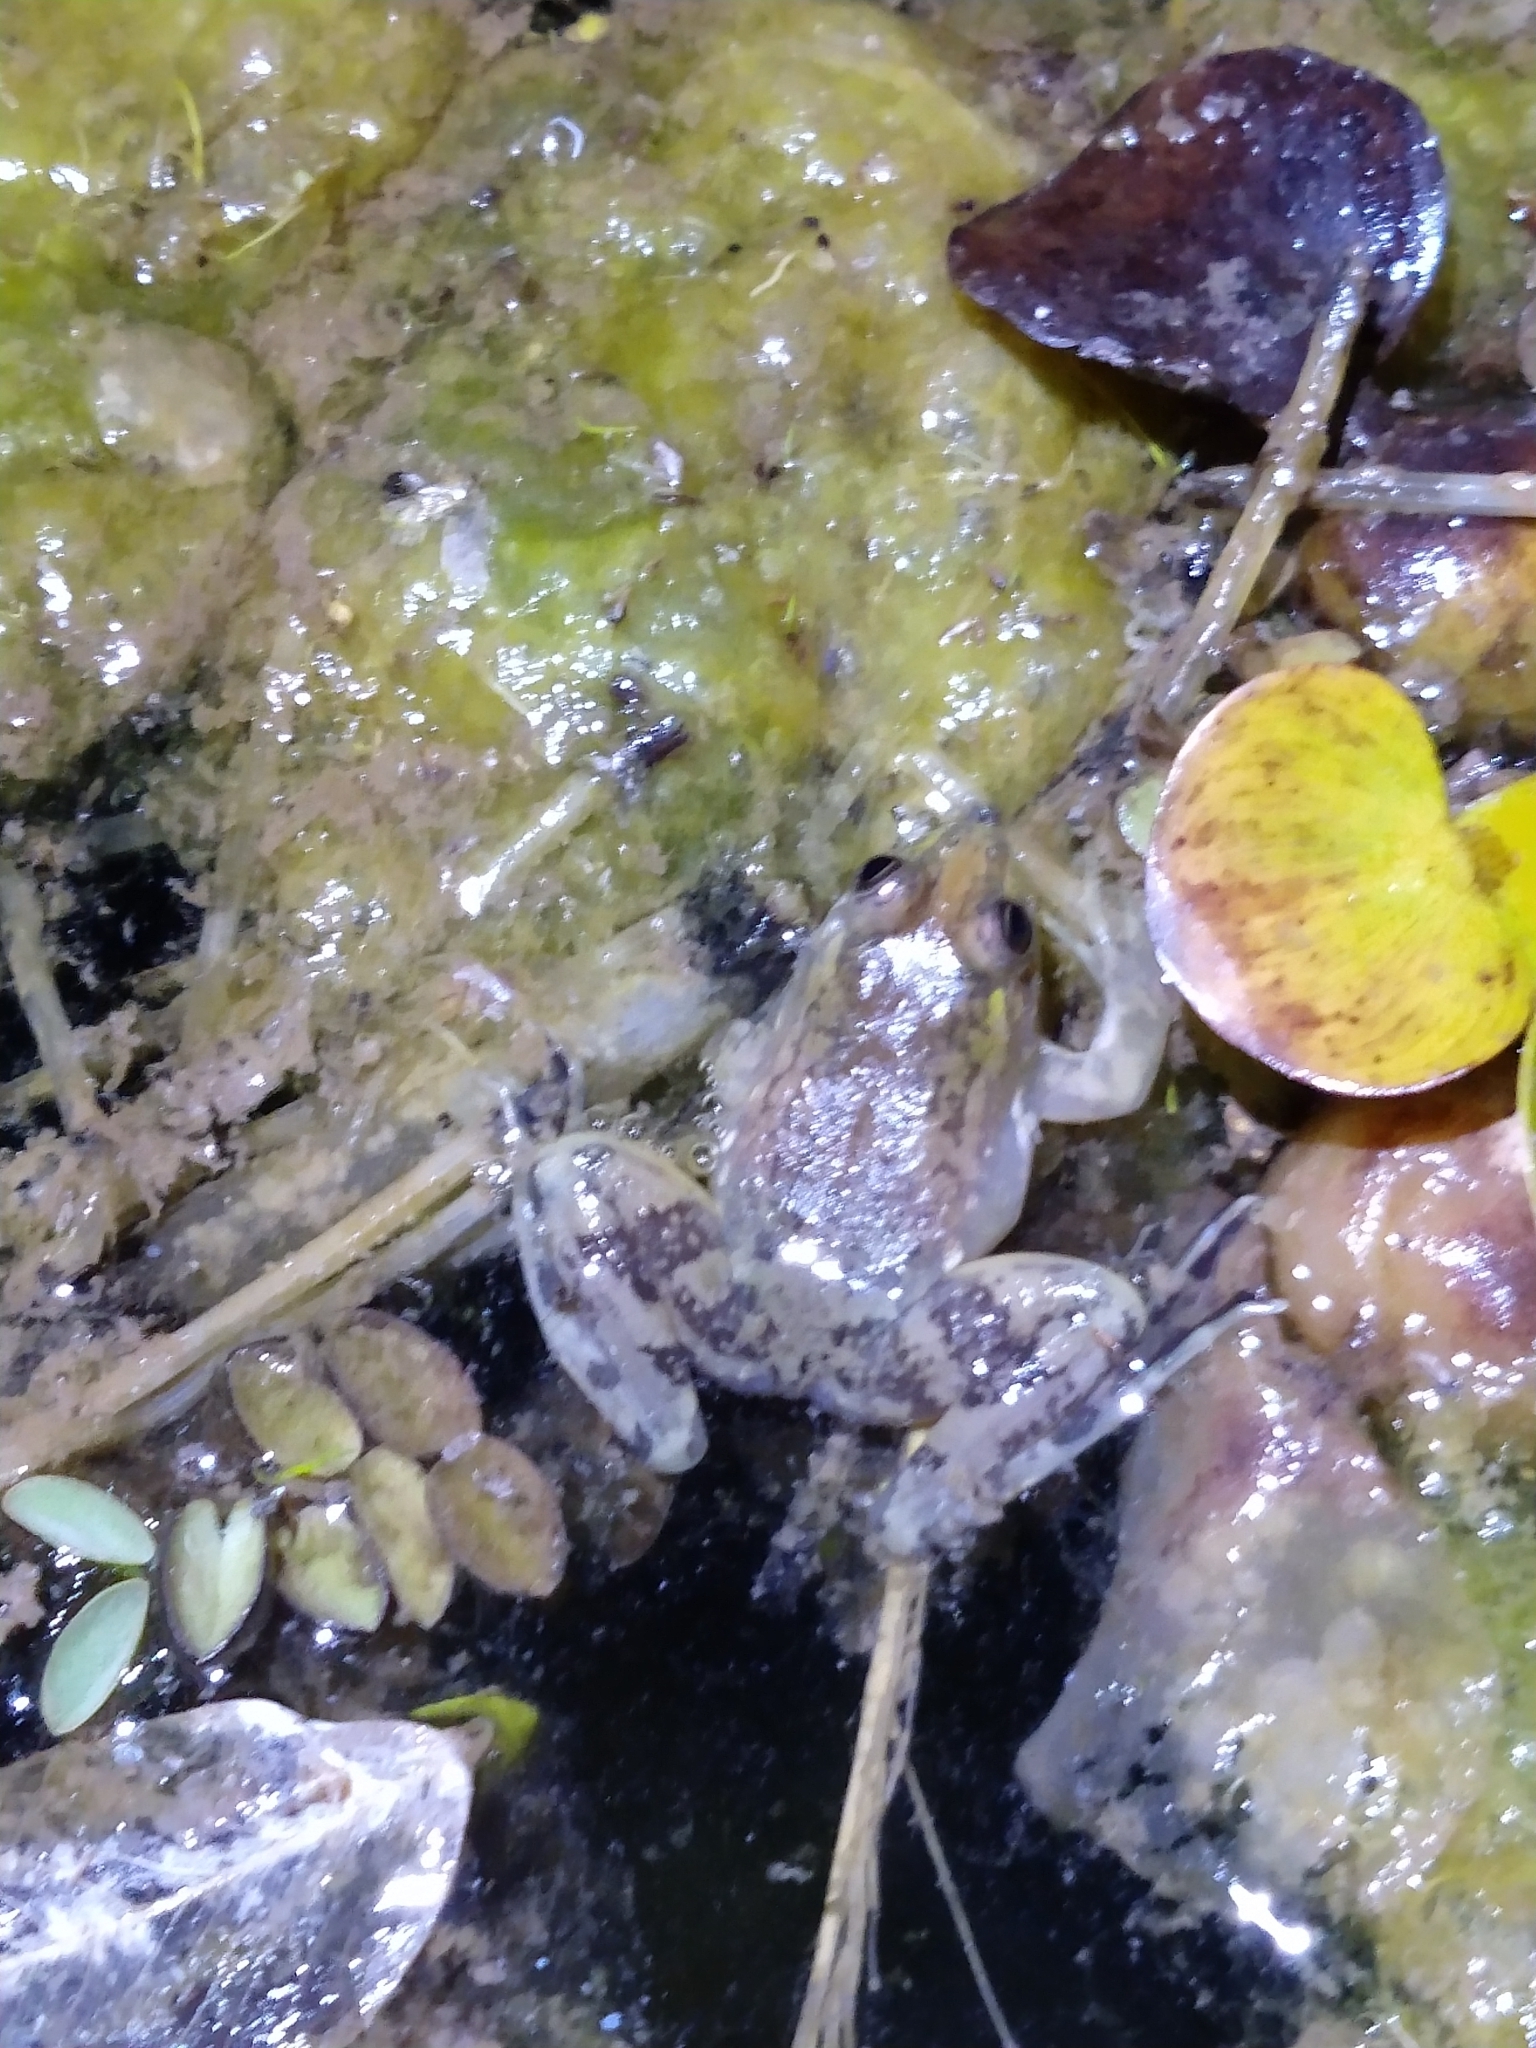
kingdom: Animalia
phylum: Chordata
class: Amphibia
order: Anura
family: Hylidae
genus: Pseudis
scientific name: Pseudis minuta
